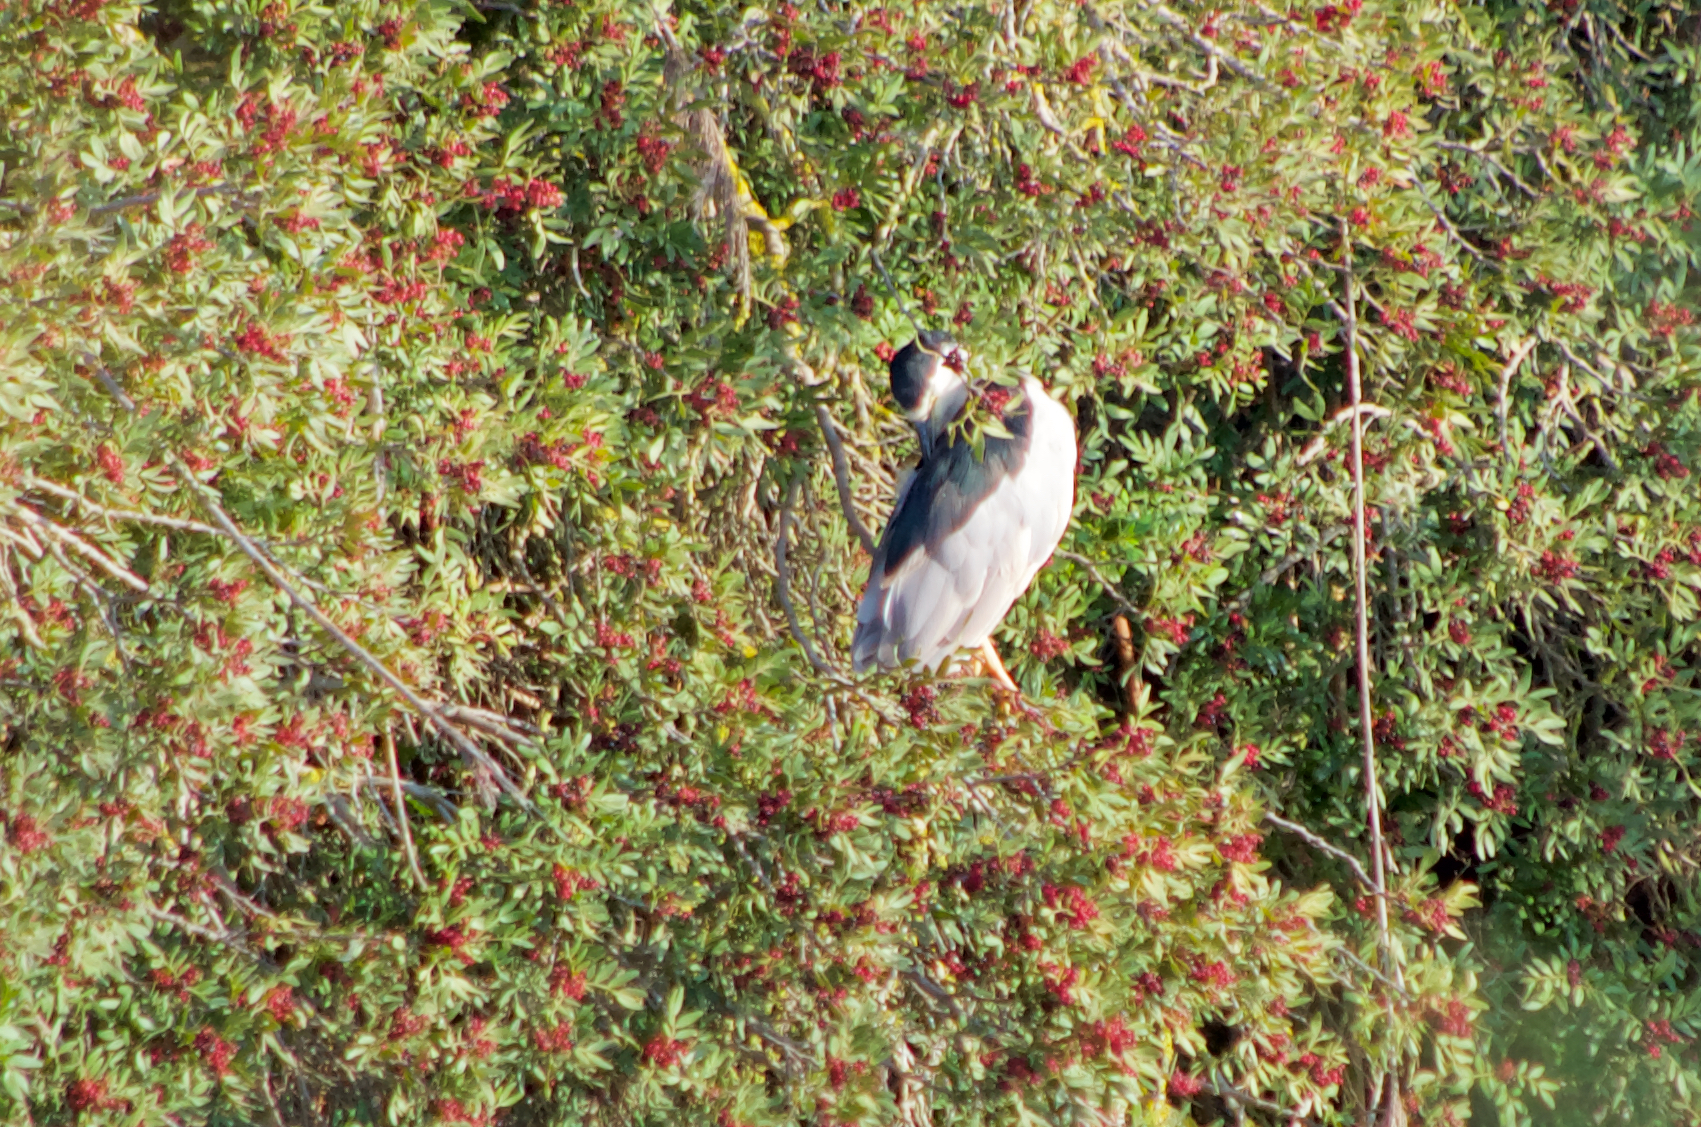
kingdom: Animalia
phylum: Chordata
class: Aves
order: Pelecaniformes
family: Ardeidae
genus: Nycticorax
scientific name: Nycticorax nycticorax
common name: Black-crowned night heron
